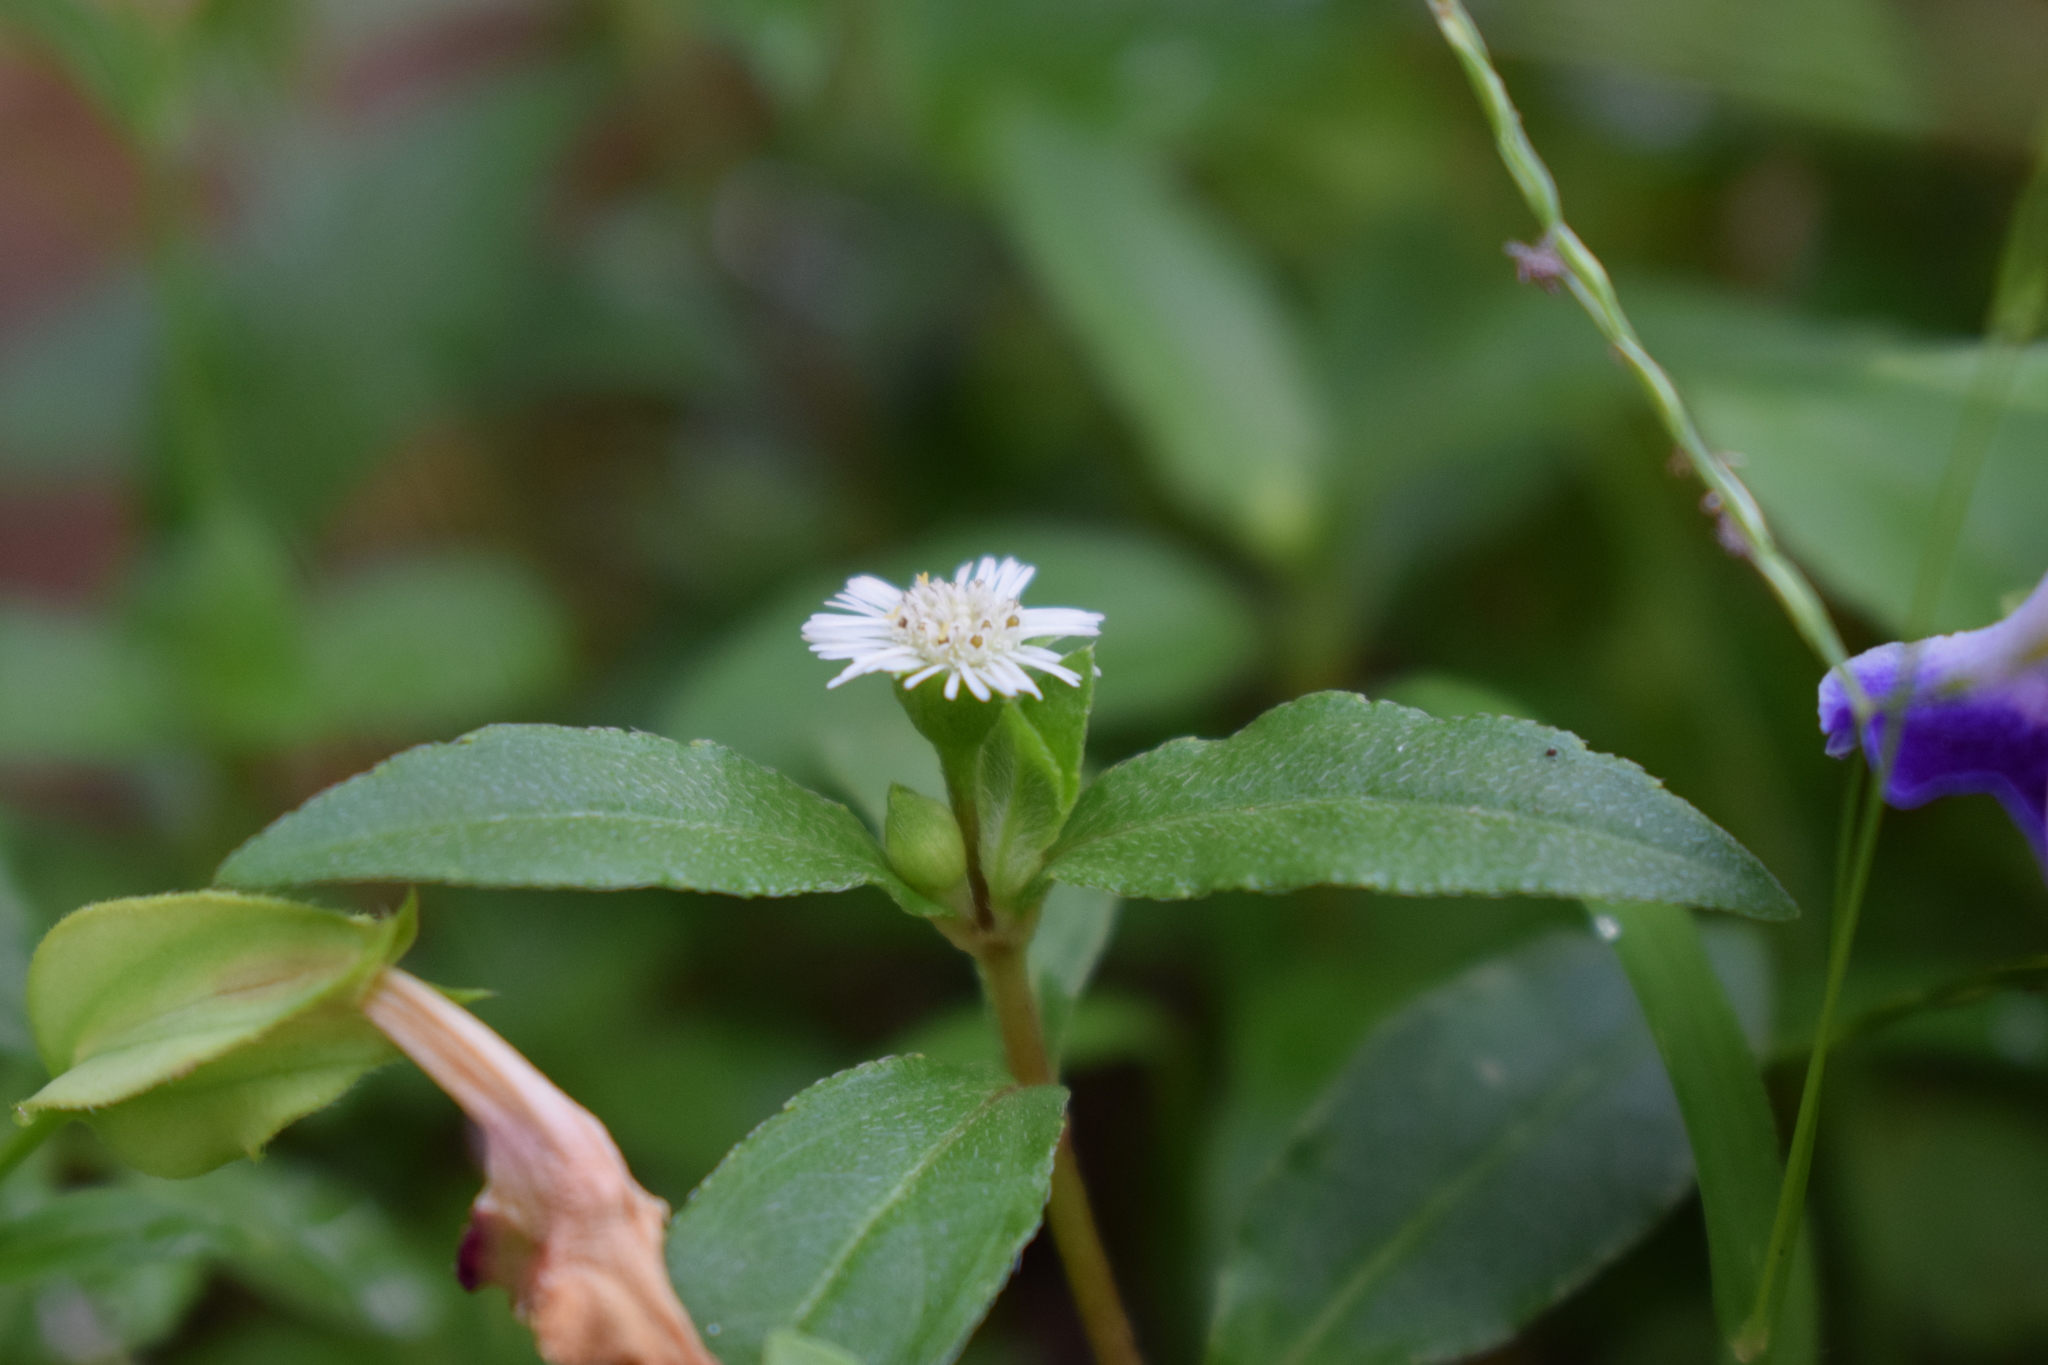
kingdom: Plantae
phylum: Tracheophyta
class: Magnoliopsida
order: Asterales
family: Asteraceae
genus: Eclipta
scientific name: Eclipta prostrata
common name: False daisy
